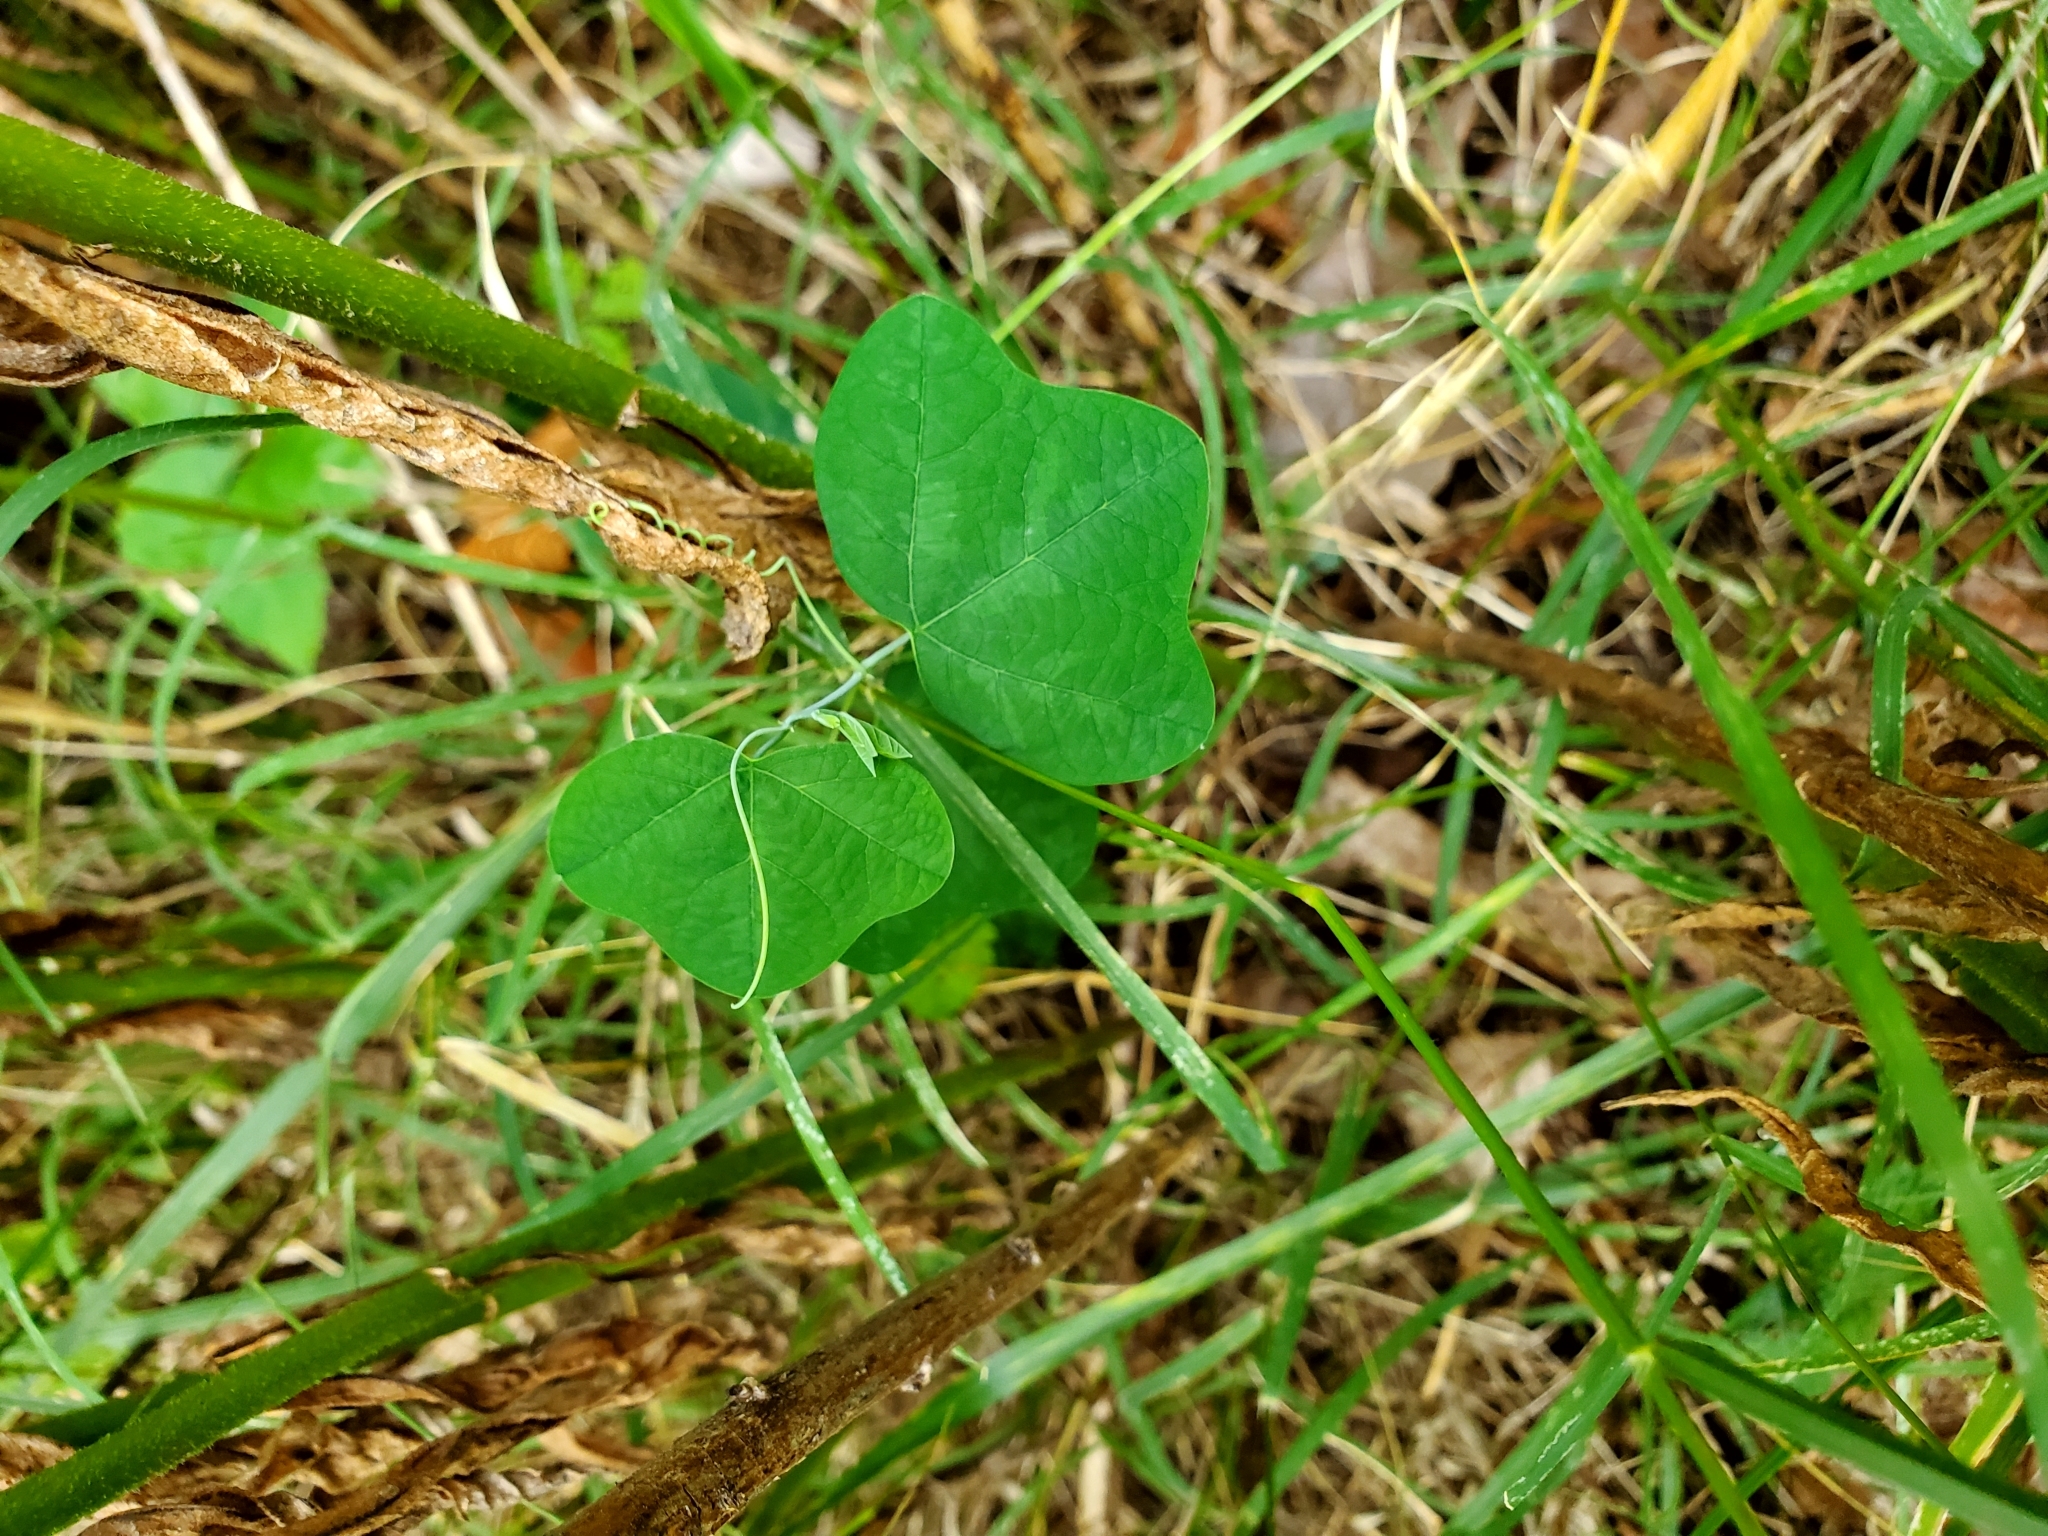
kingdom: Plantae
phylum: Tracheophyta
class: Magnoliopsida
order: Malpighiales
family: Passifloraceae
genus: Passiflora
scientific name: Passiflora lutea
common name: Yellow passionflower
